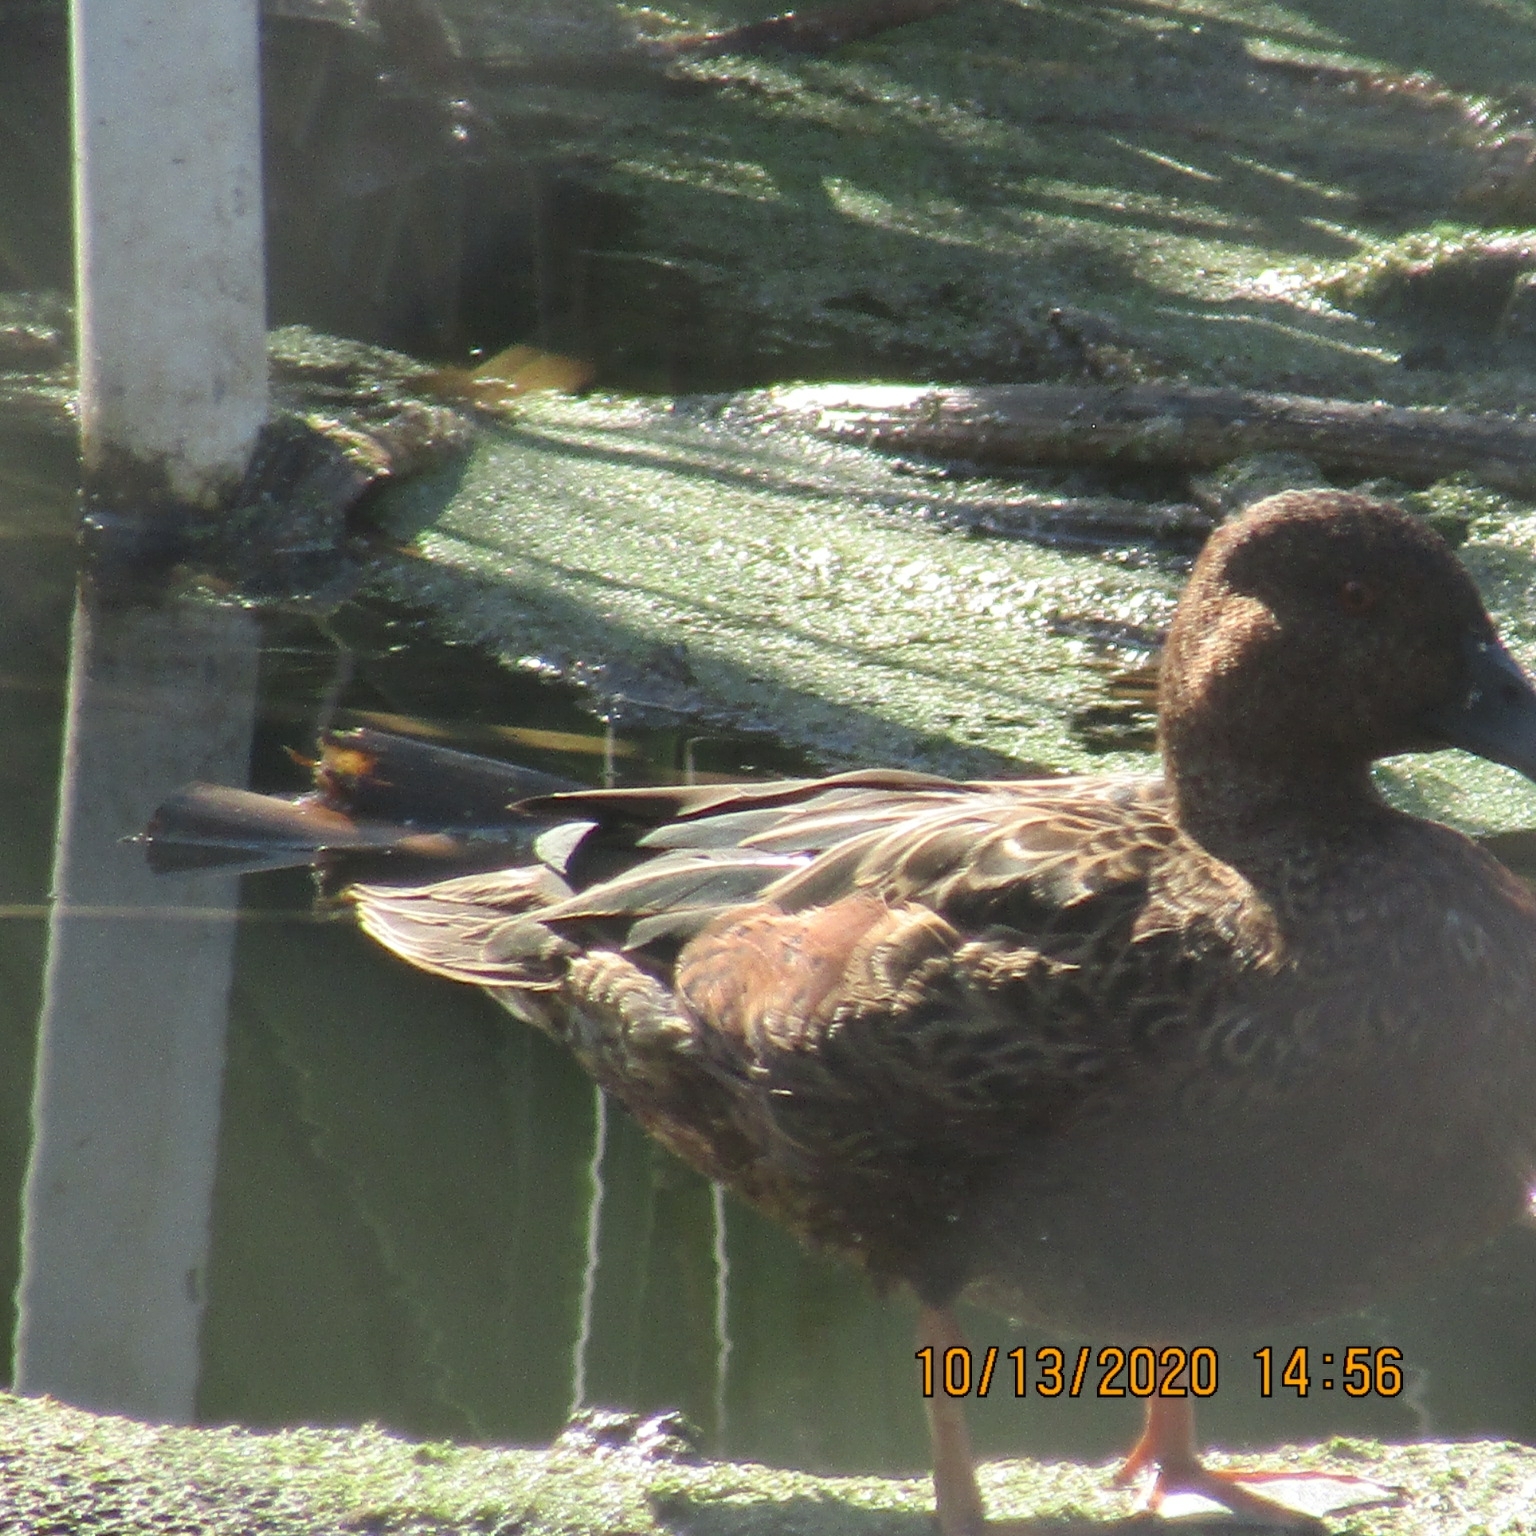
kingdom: Animalia
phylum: Chordata
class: Aves
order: Anseriformes
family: Anatidae
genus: Spatula
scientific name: Spatula cyanoptera
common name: Cinnamon teal
